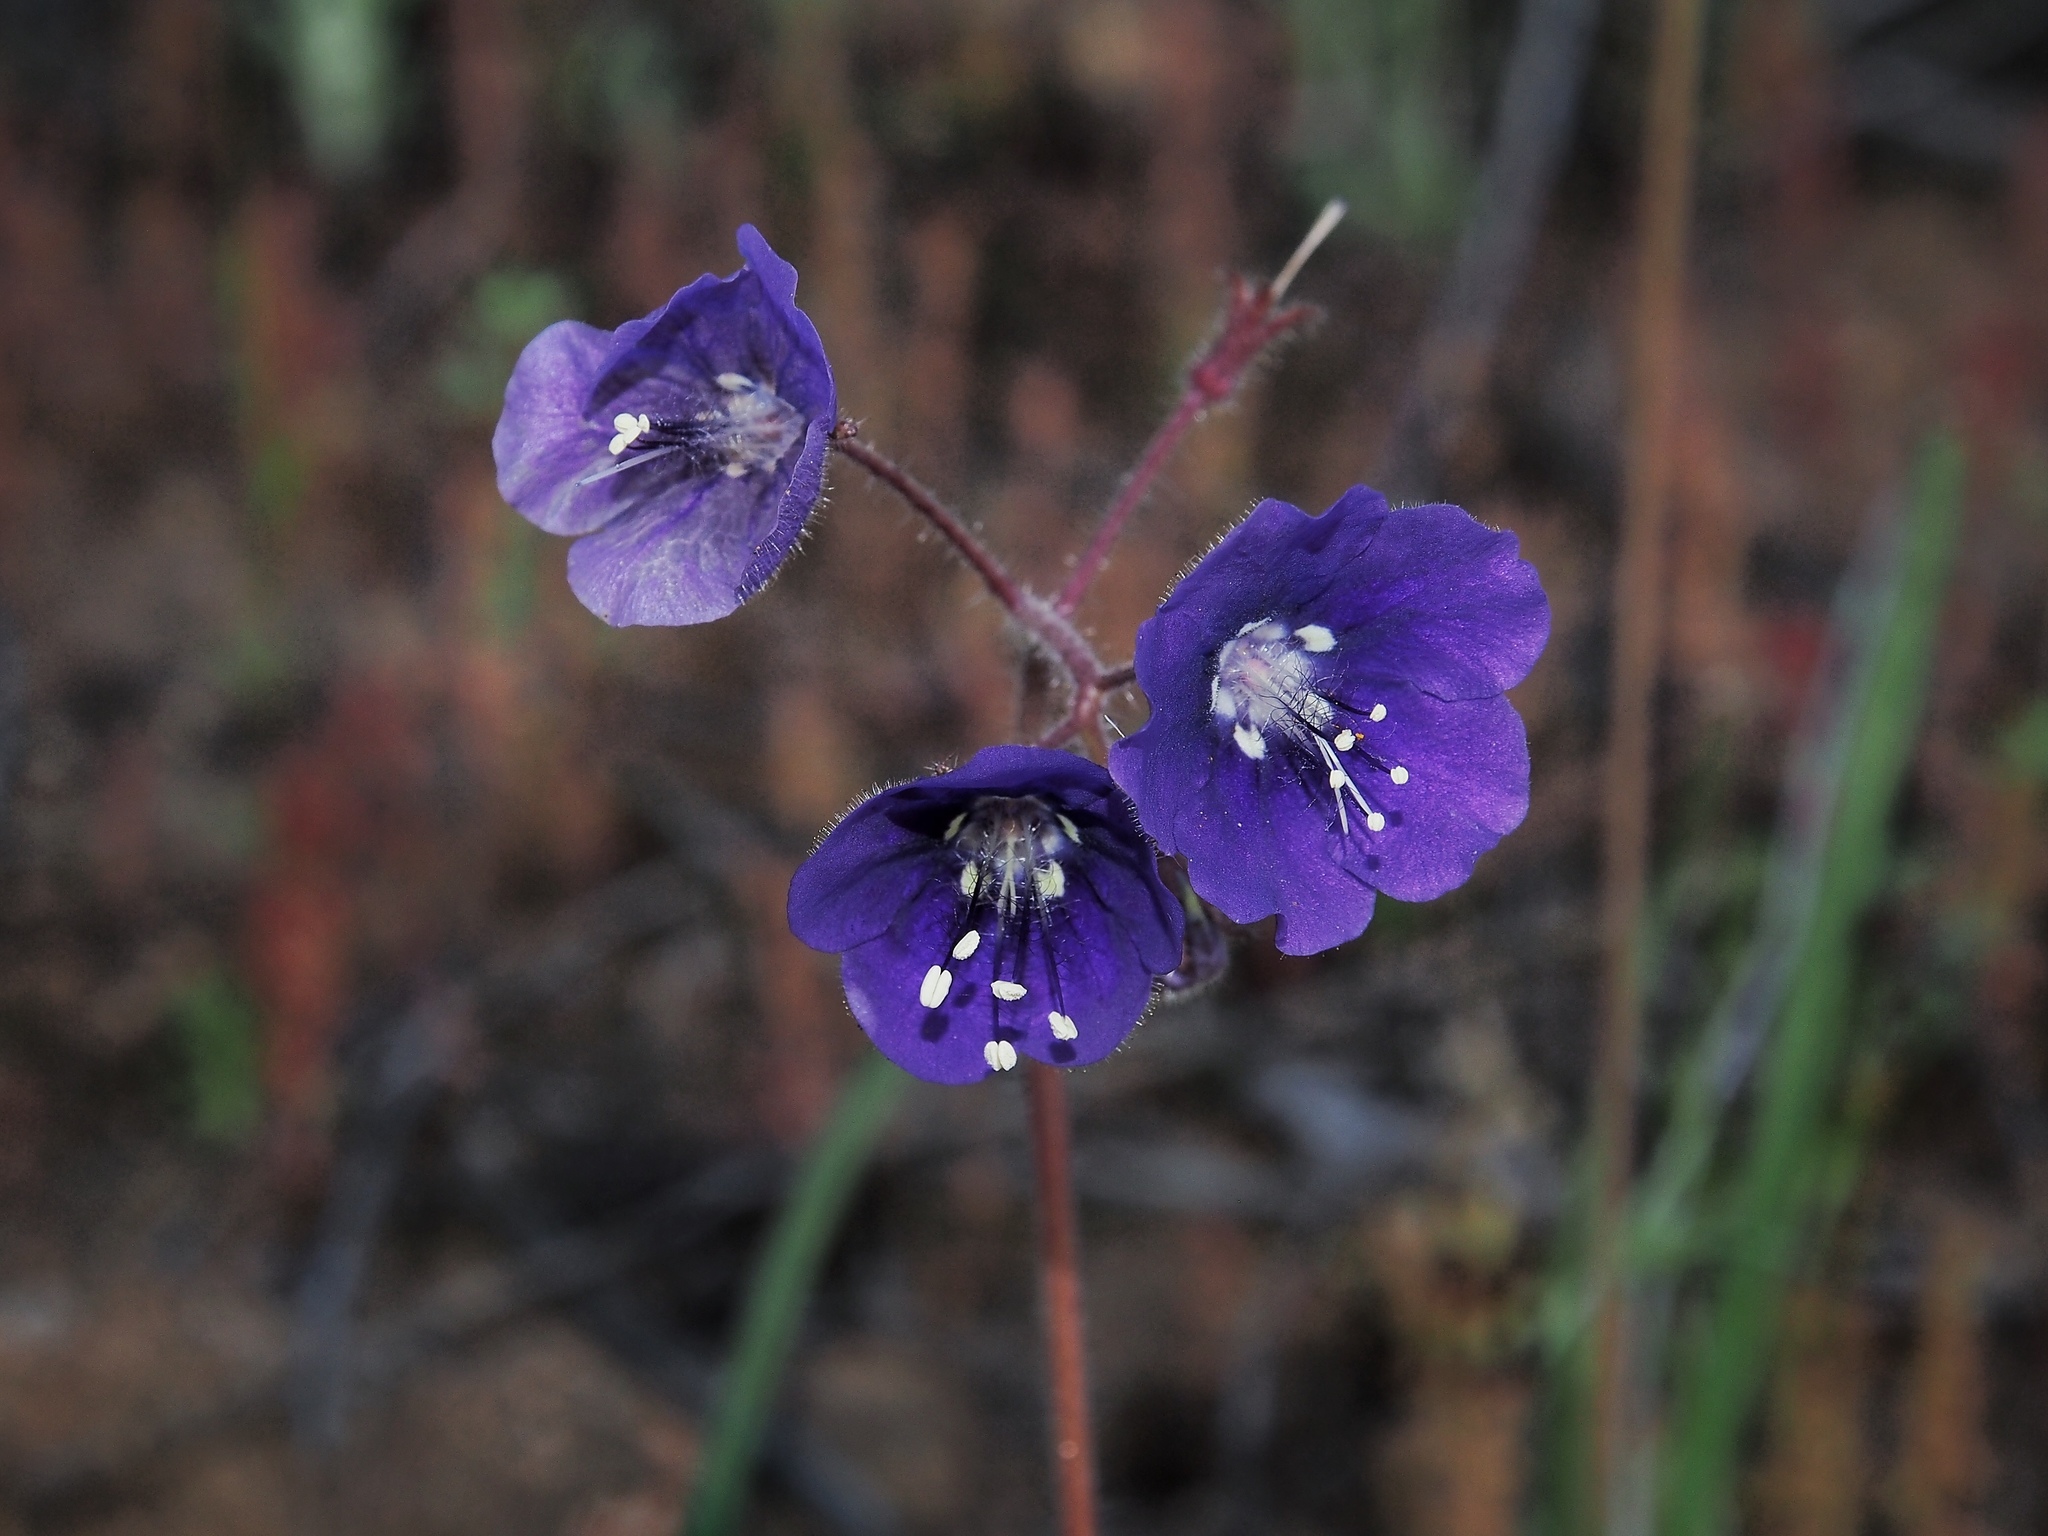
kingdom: Plantae
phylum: Tracheophyta
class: Magnoliopsida
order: Boraginales
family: Hydrophyllaceae
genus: Phacelia
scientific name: Phacelia parryi
